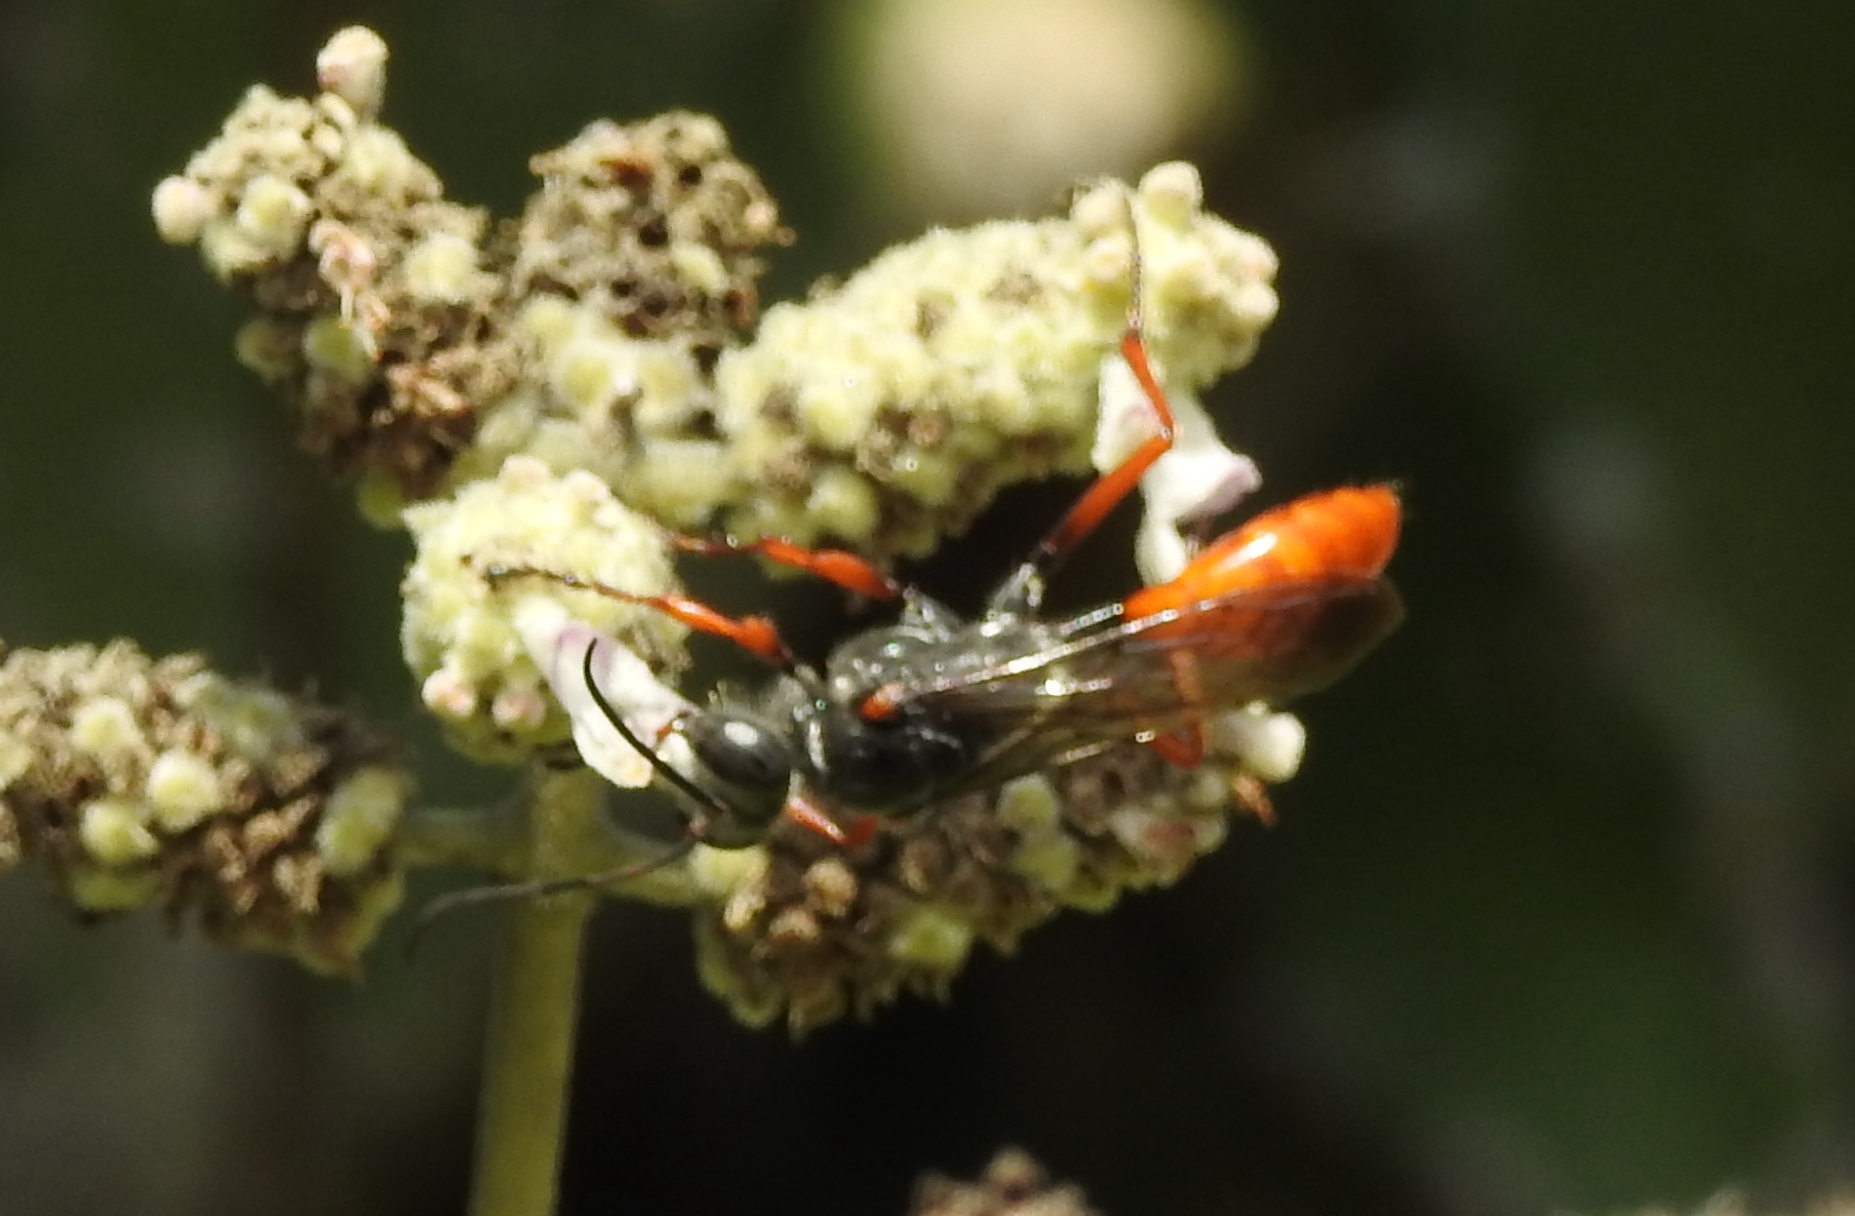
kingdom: Animalia
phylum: Arthropoda
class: Insecta
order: Hymenoptera
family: Sphecidae
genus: Sphex
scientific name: Sphex pruinosus
